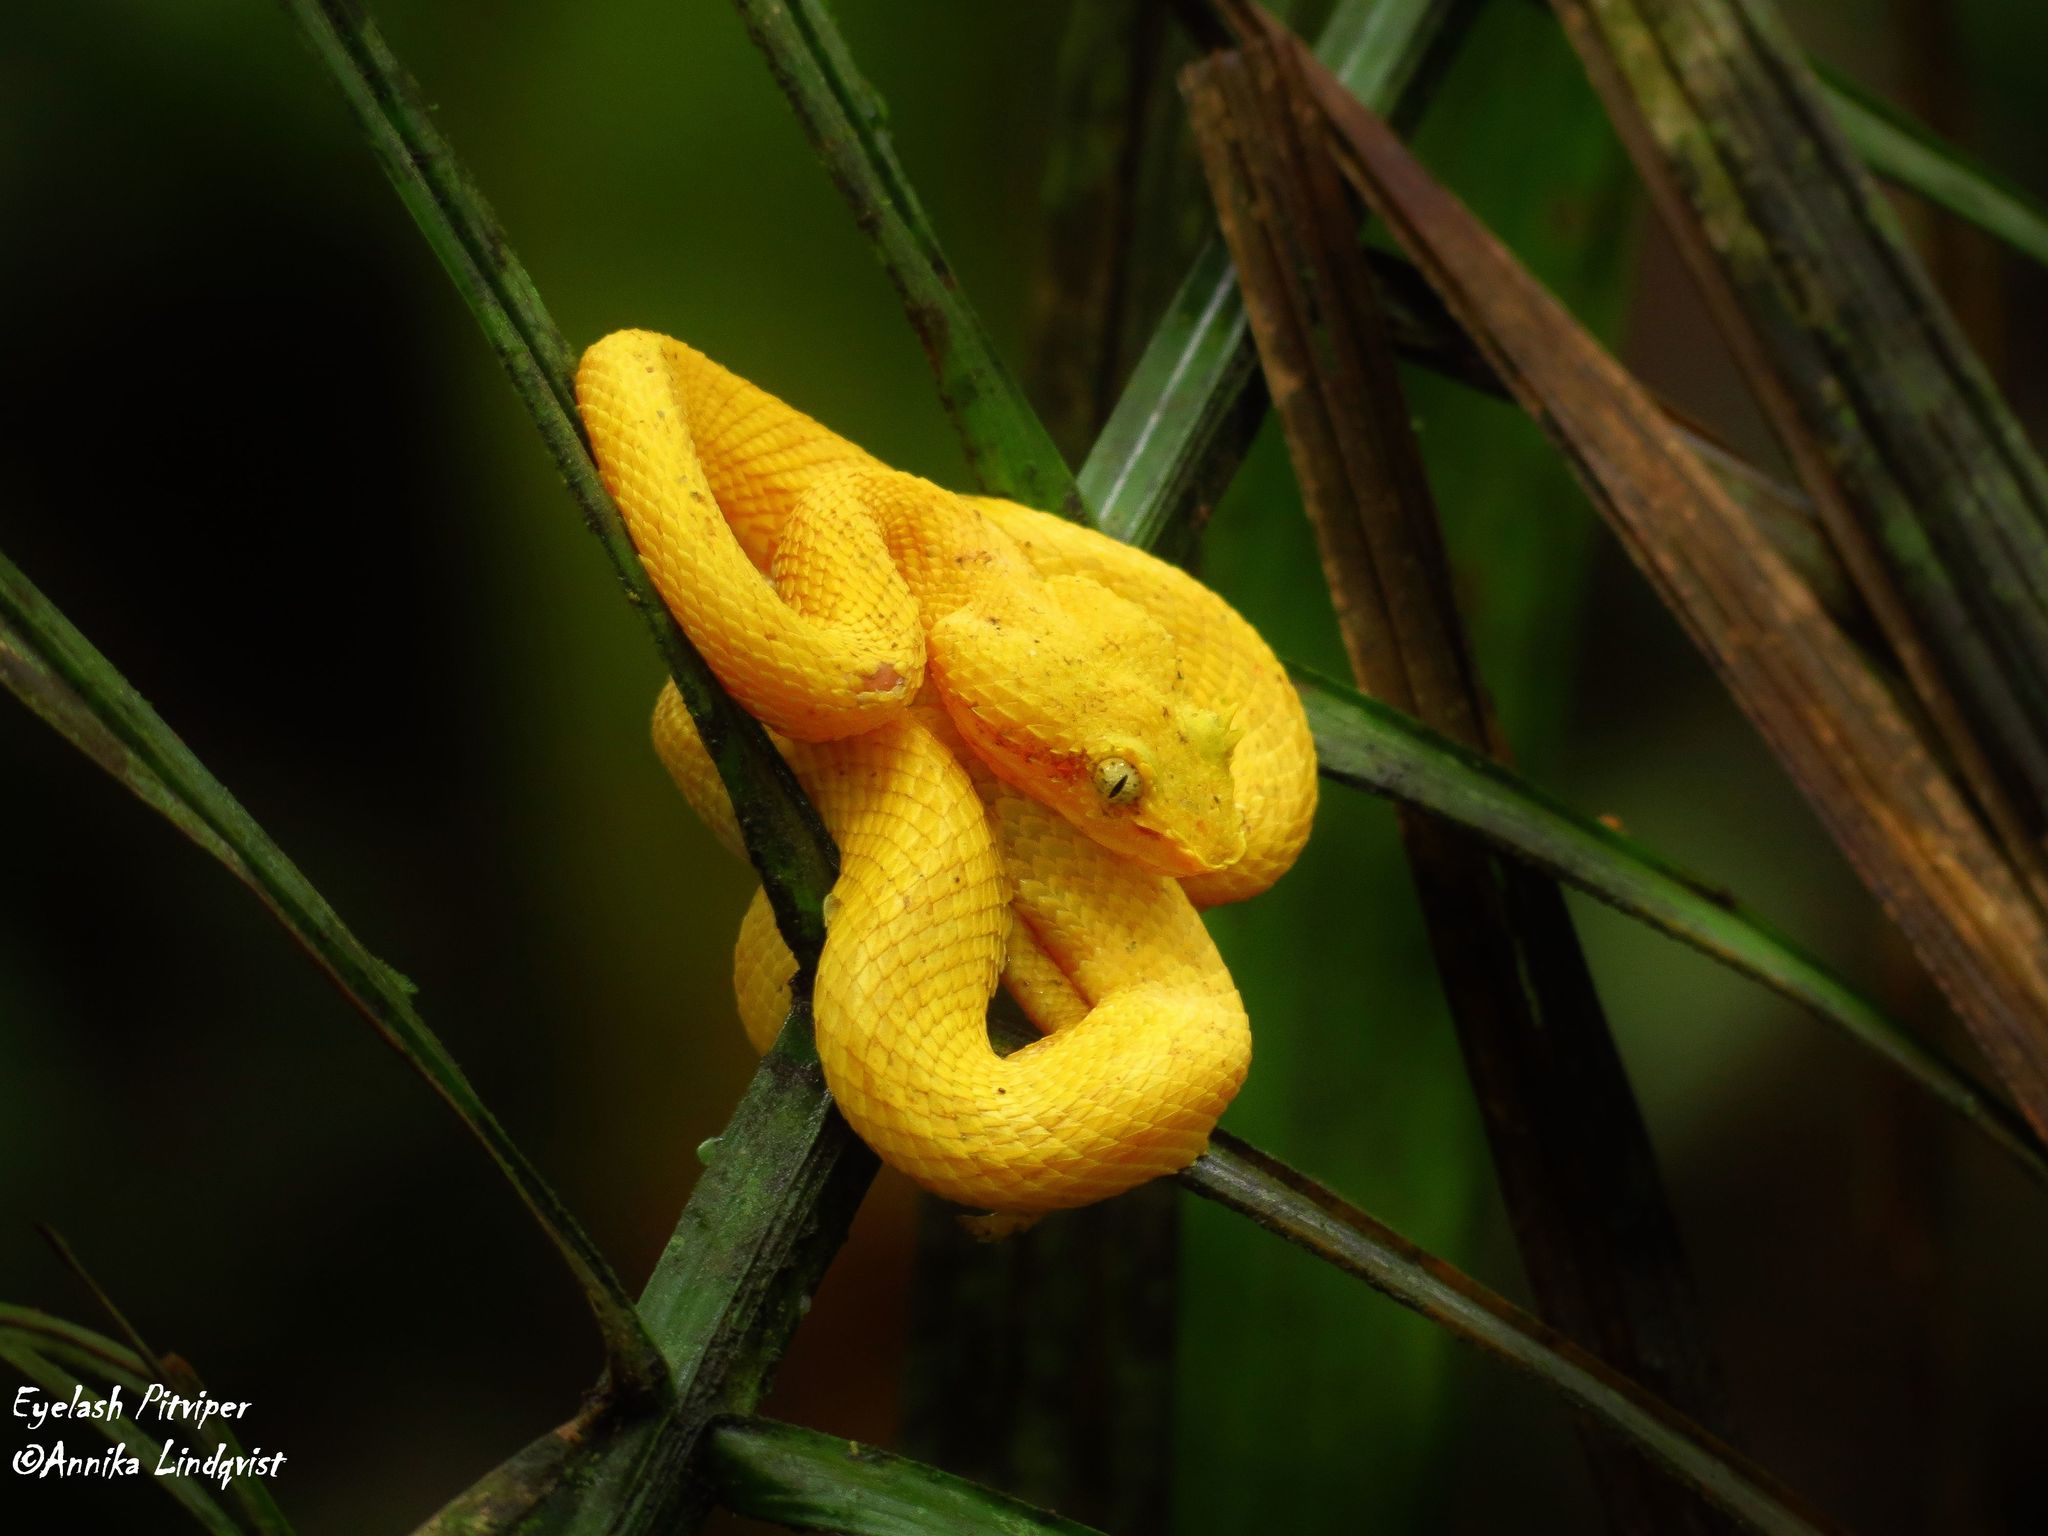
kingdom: Animalia
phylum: Chordata
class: Squamata
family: Viperidae
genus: Bothriechis
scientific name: Bothriechis schlegelii
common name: Eyelash viper
